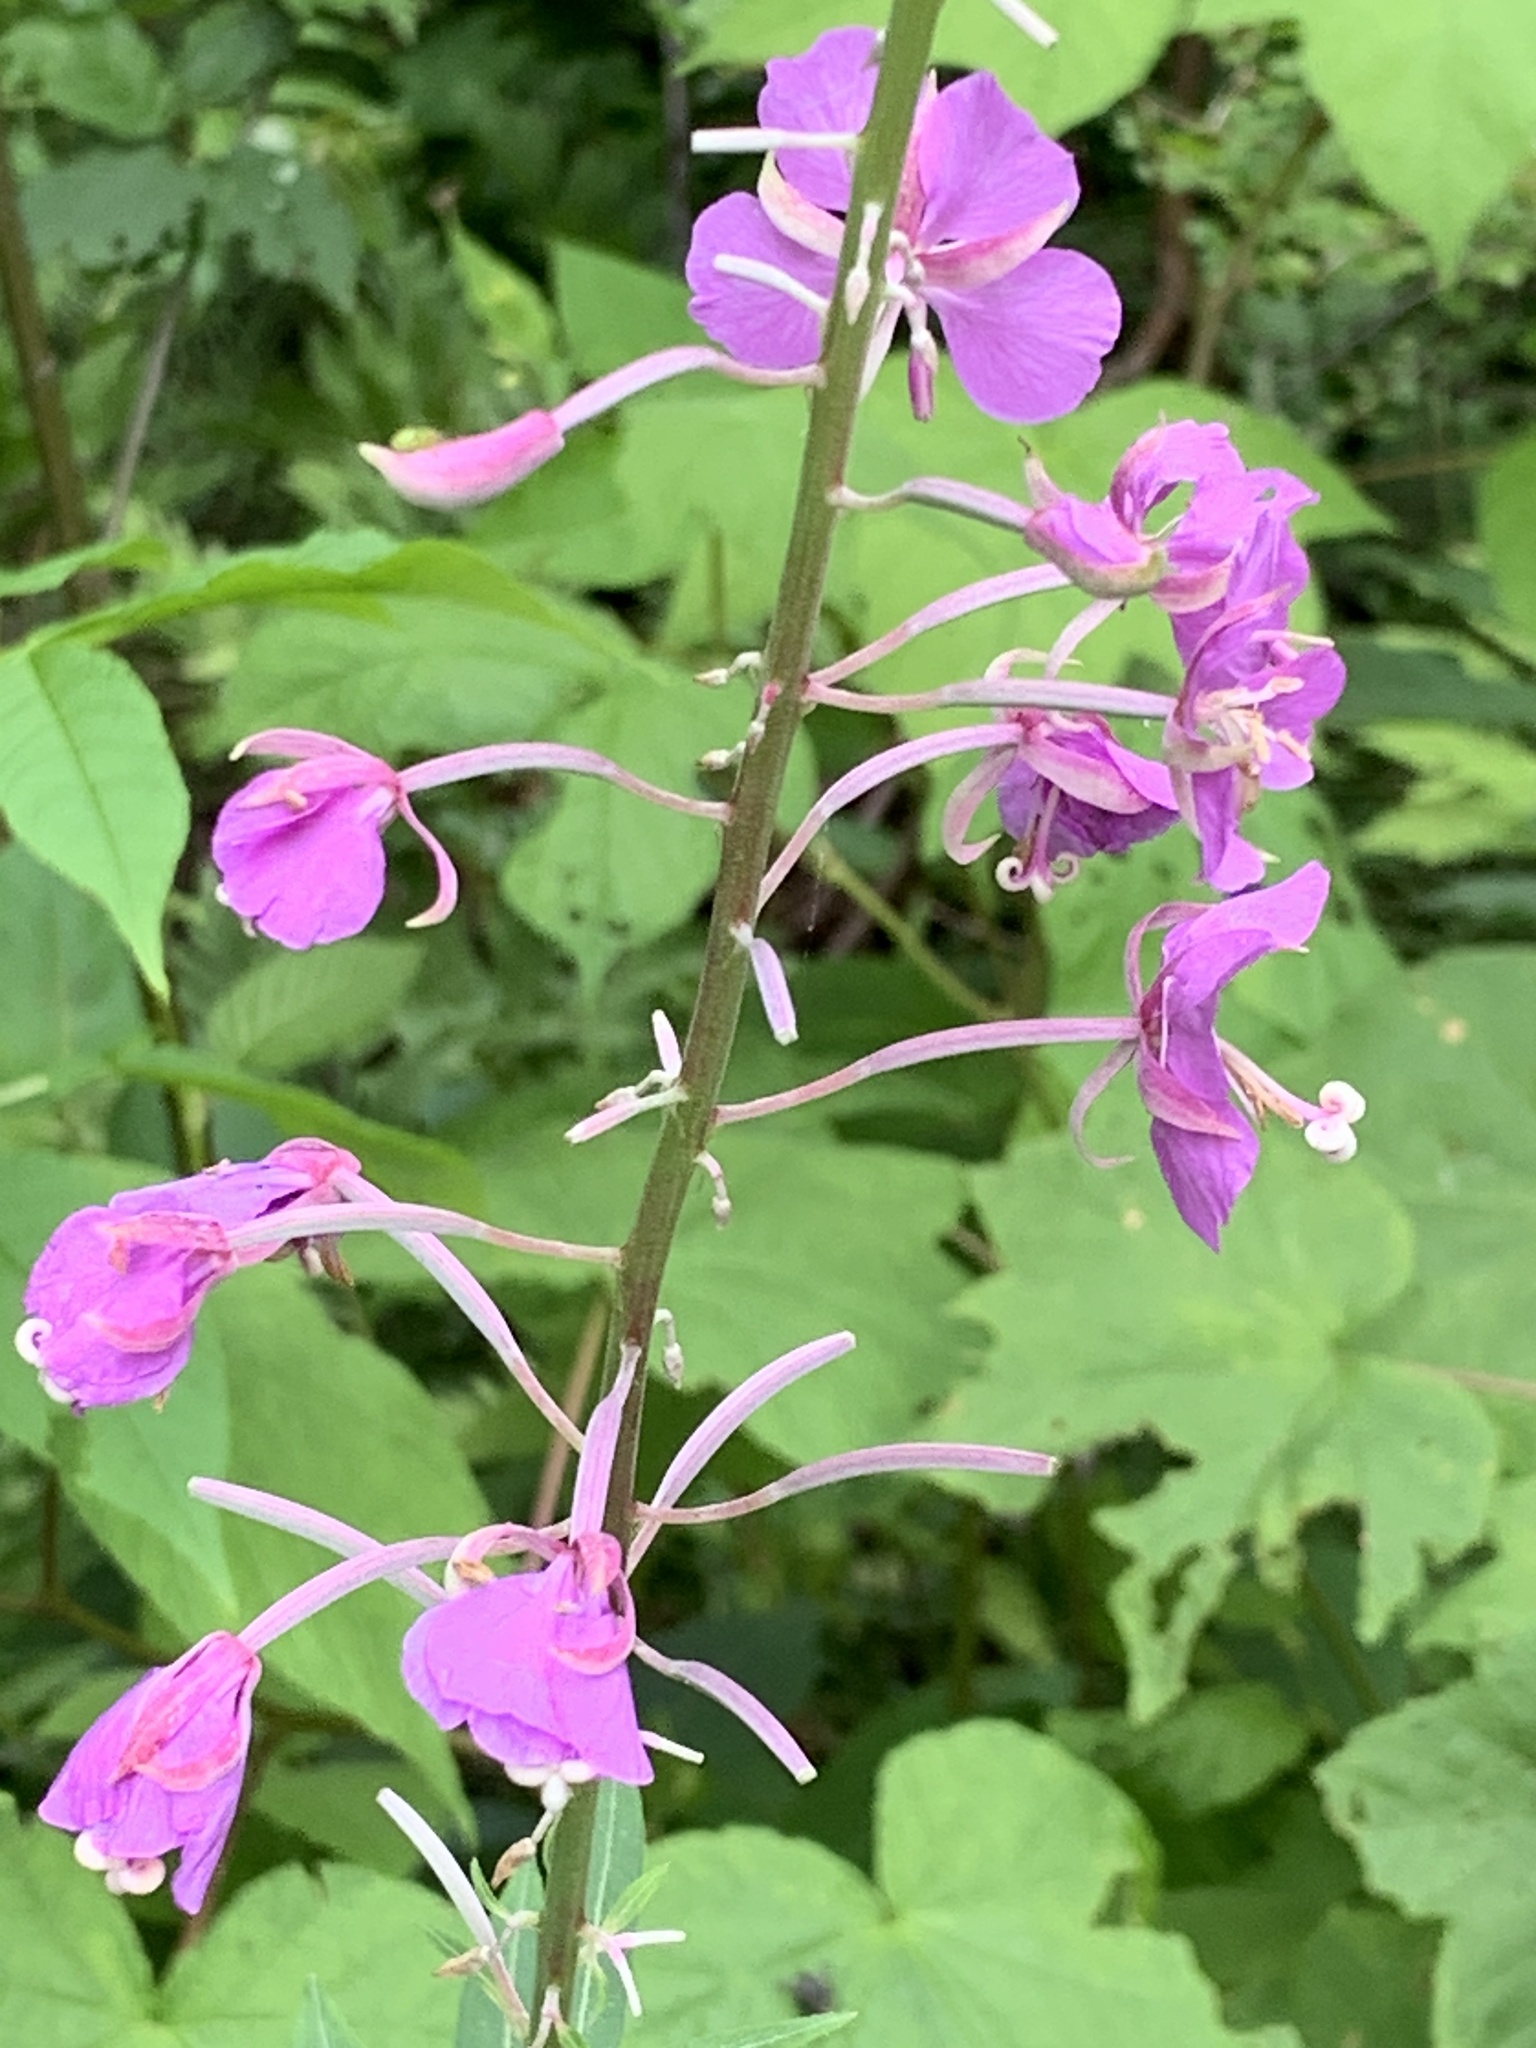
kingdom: Plantae
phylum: Tracheophyta
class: Magnoliopsida
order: Myrtales
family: Onagraceae
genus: Chamaenerion
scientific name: Chamaenerion angustifolium
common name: Fireweed
